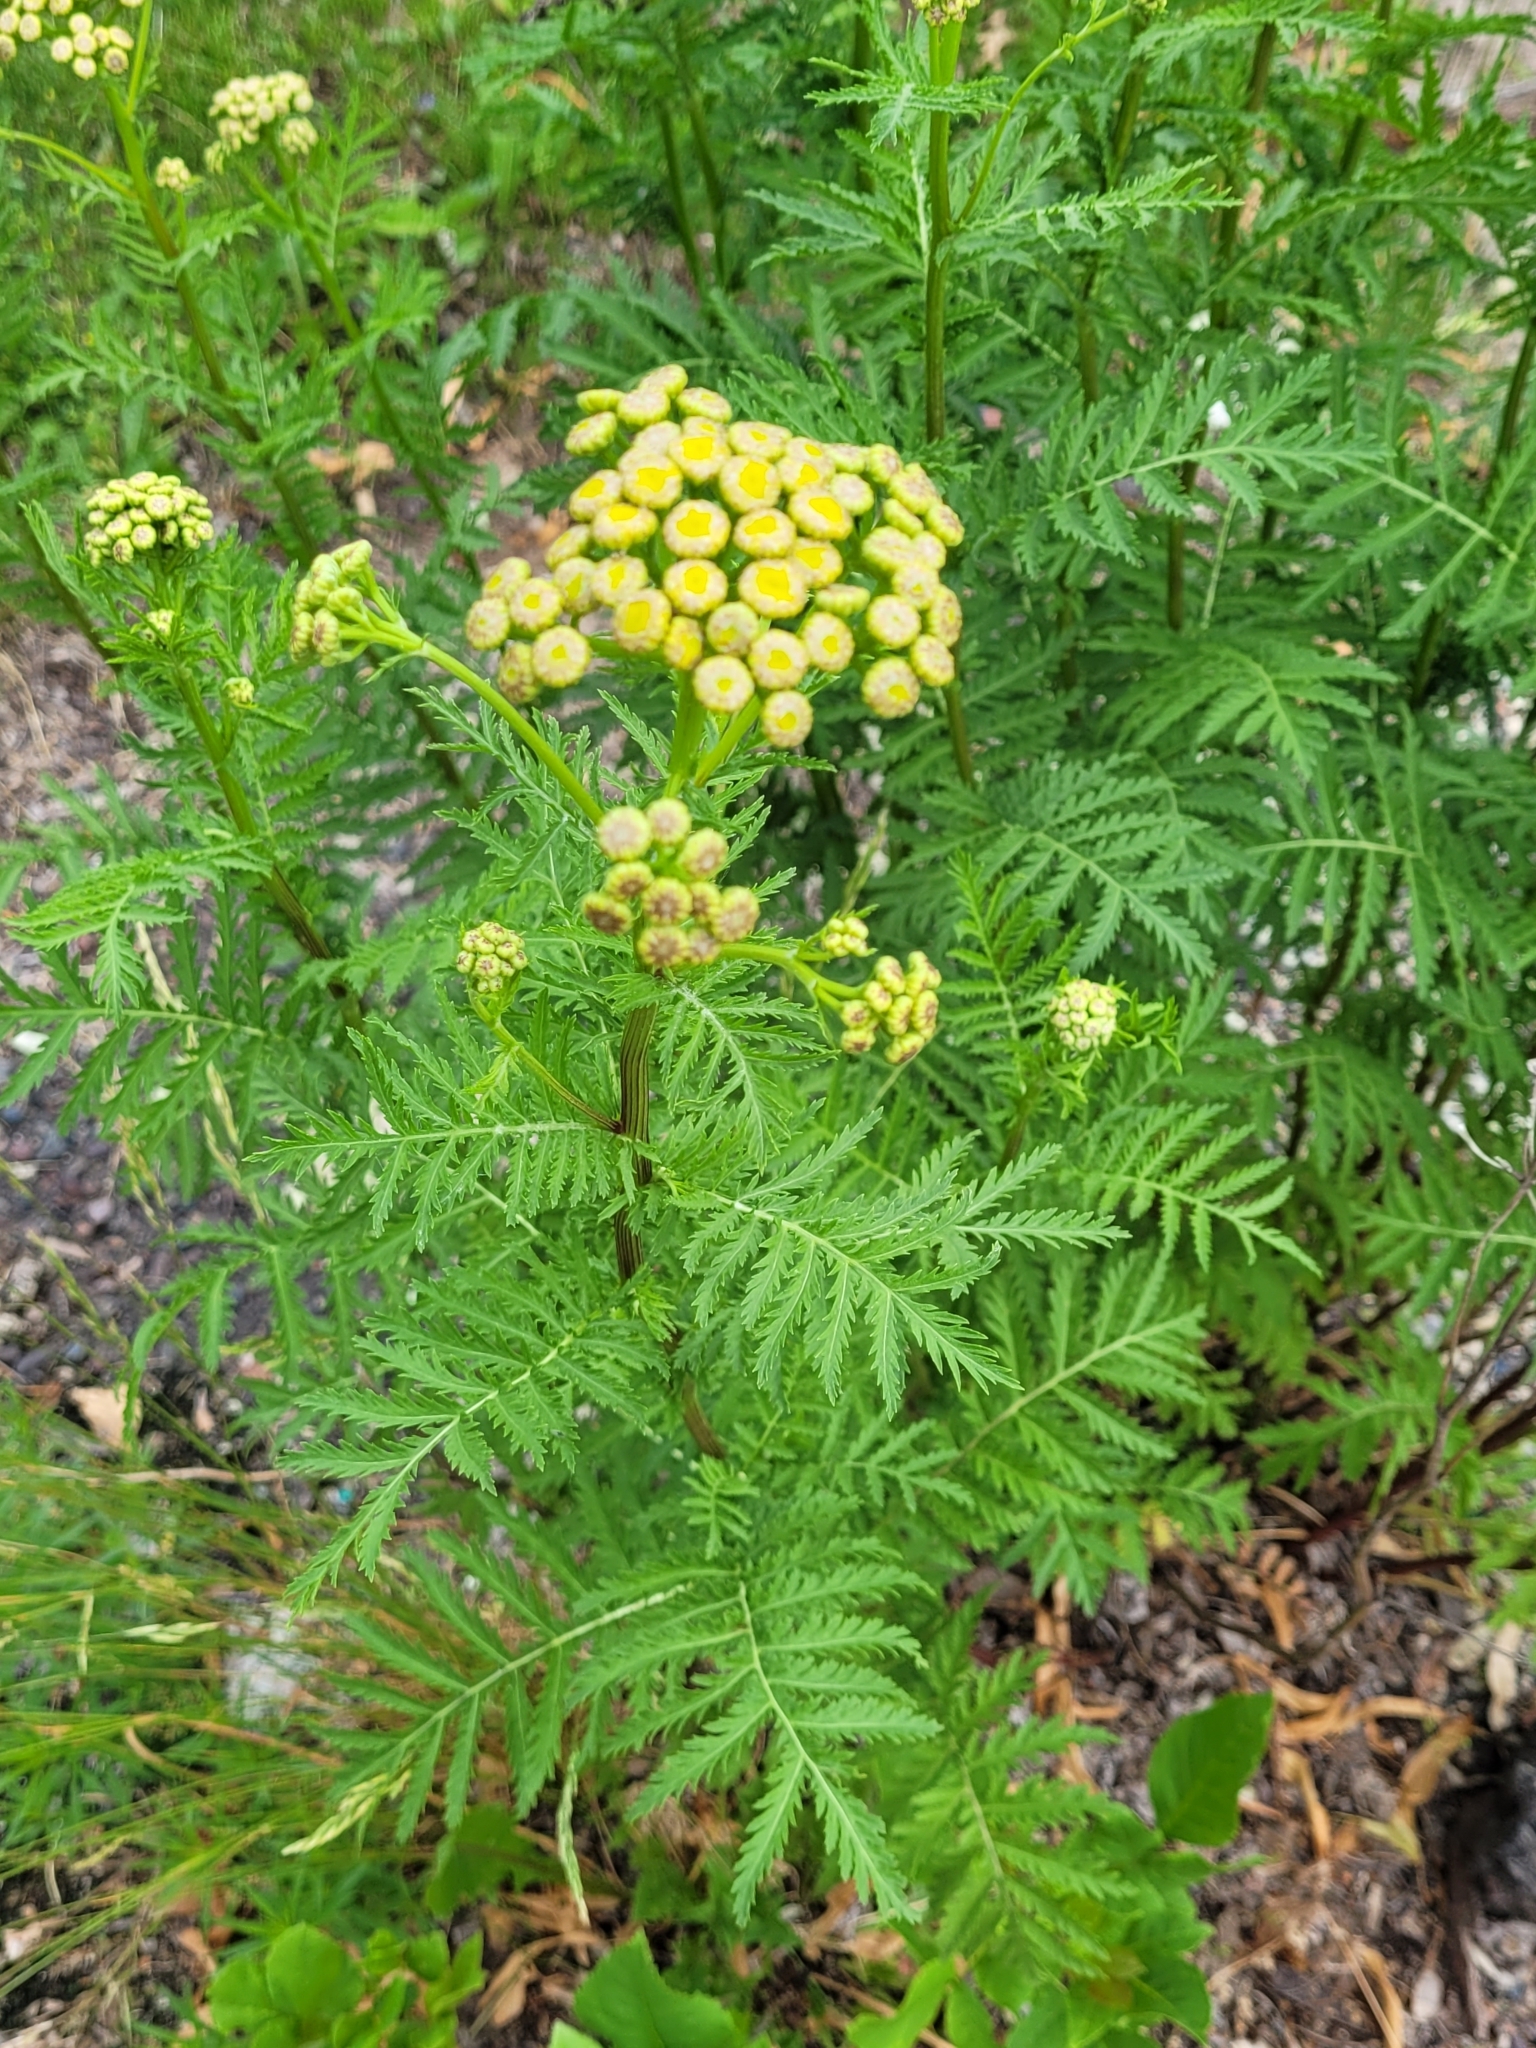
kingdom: Plantae
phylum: Tracheophyta
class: Magnoliopsida
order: Asterales
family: Asteraceae
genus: Tanacetum
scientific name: Tanacetum vulgare
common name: Common tansy
